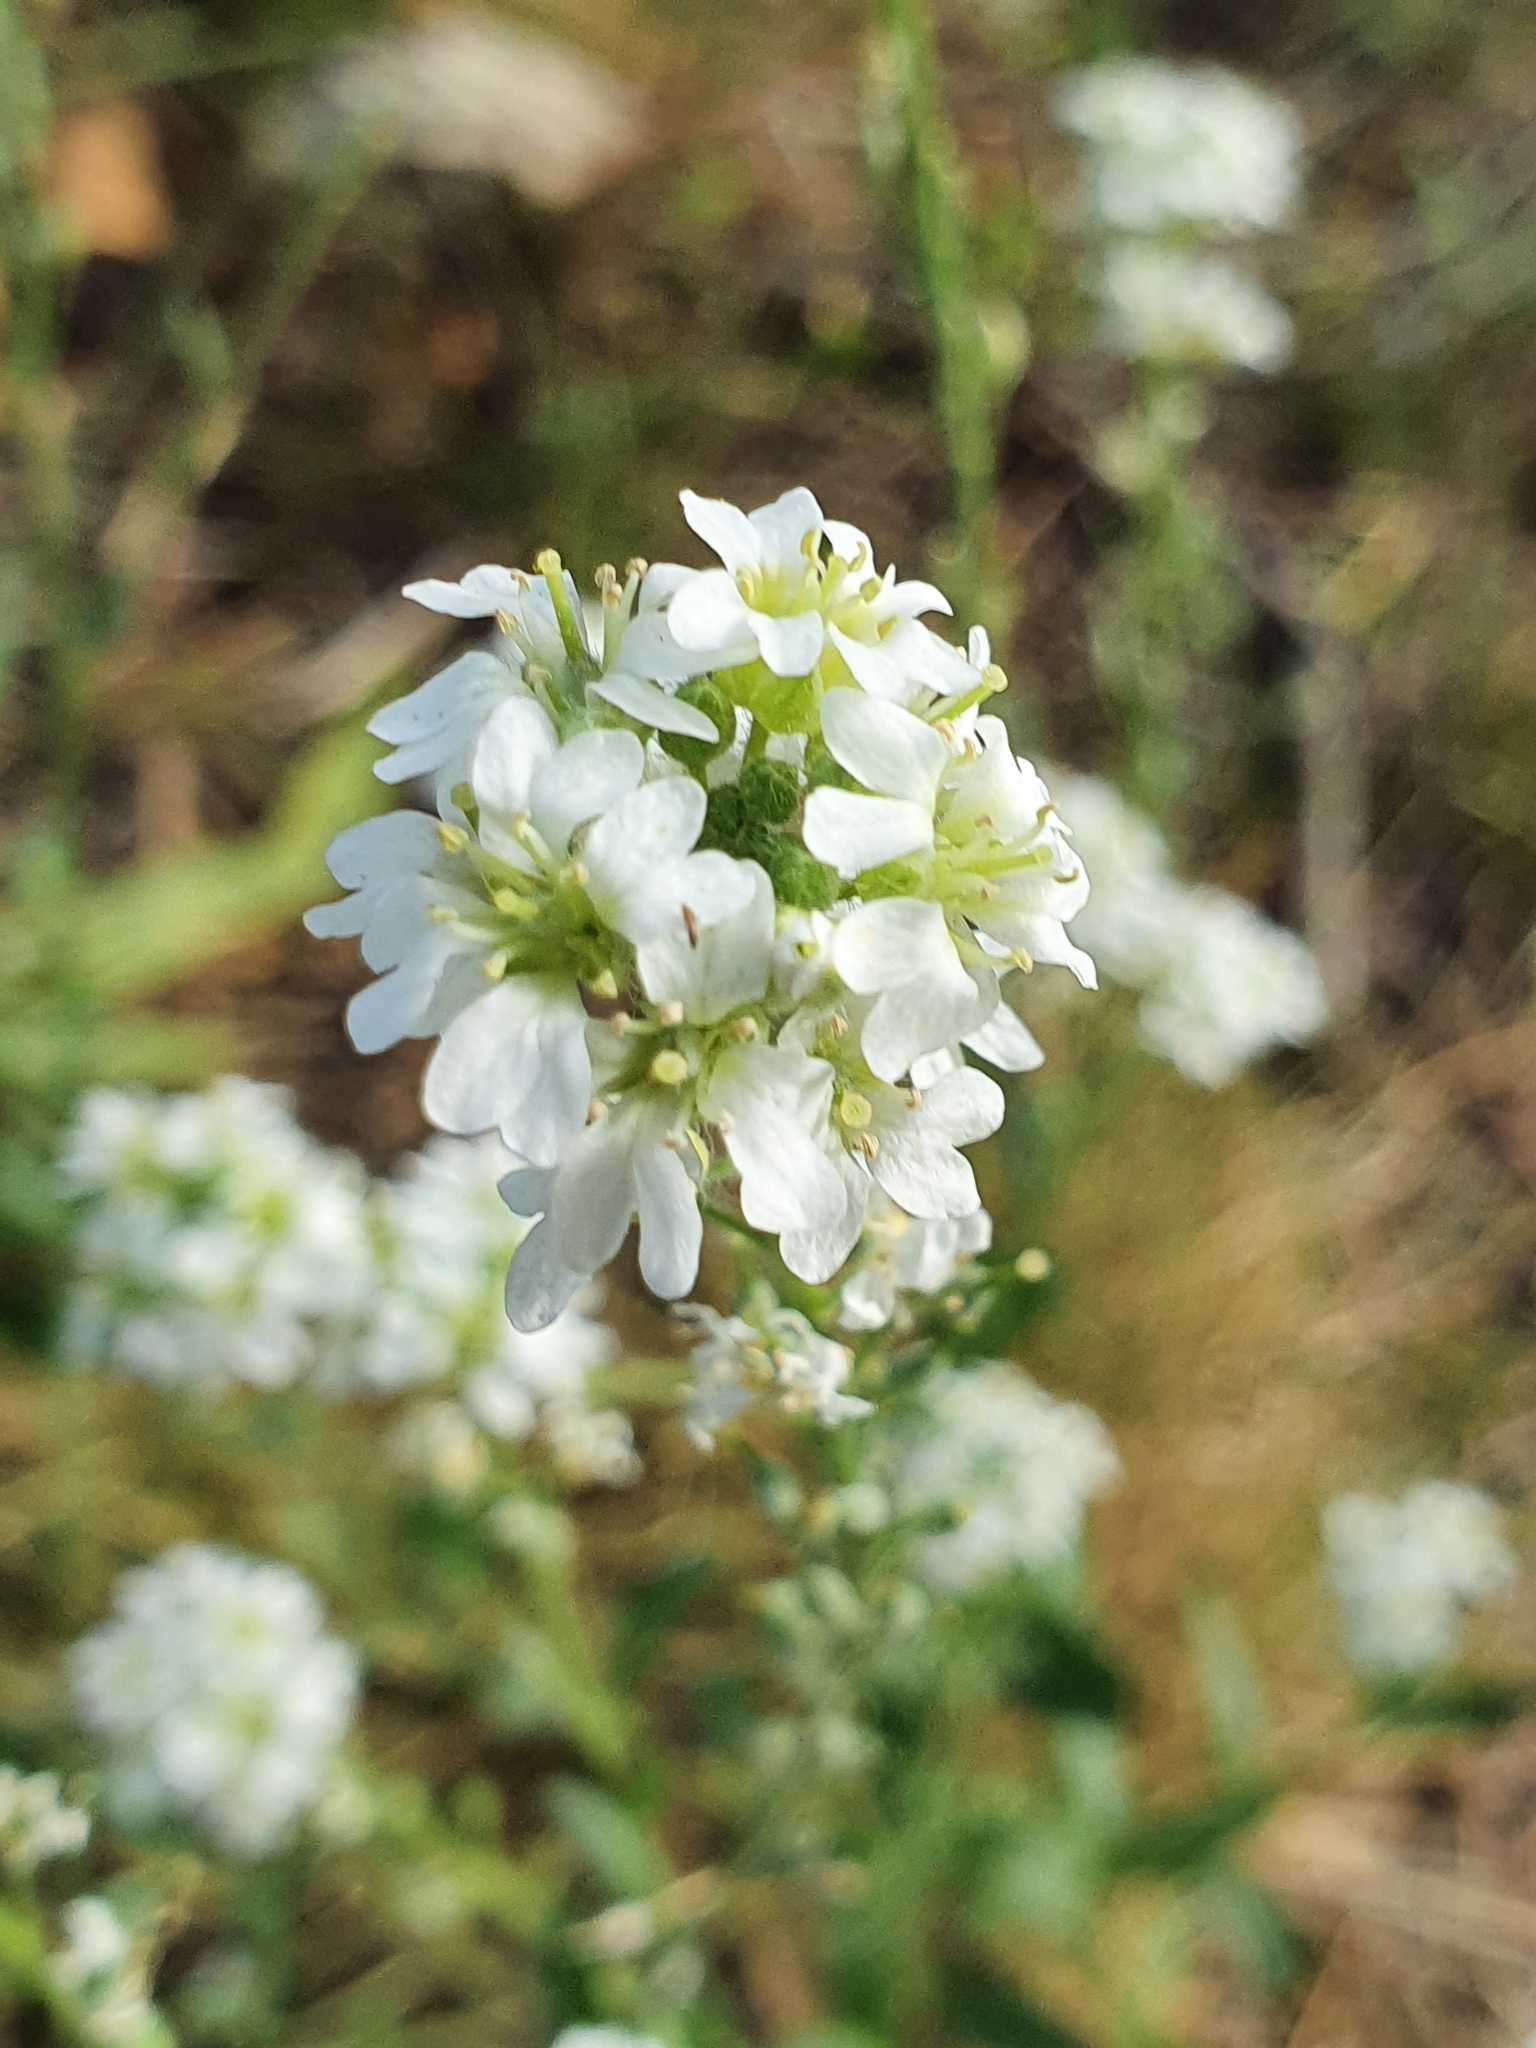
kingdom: Plantae
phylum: Tracheophyta
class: Magnoliopsida
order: Brassicales
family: Brassicaceae
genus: Berteroa
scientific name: Berteroa incana
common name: Hoary alison
